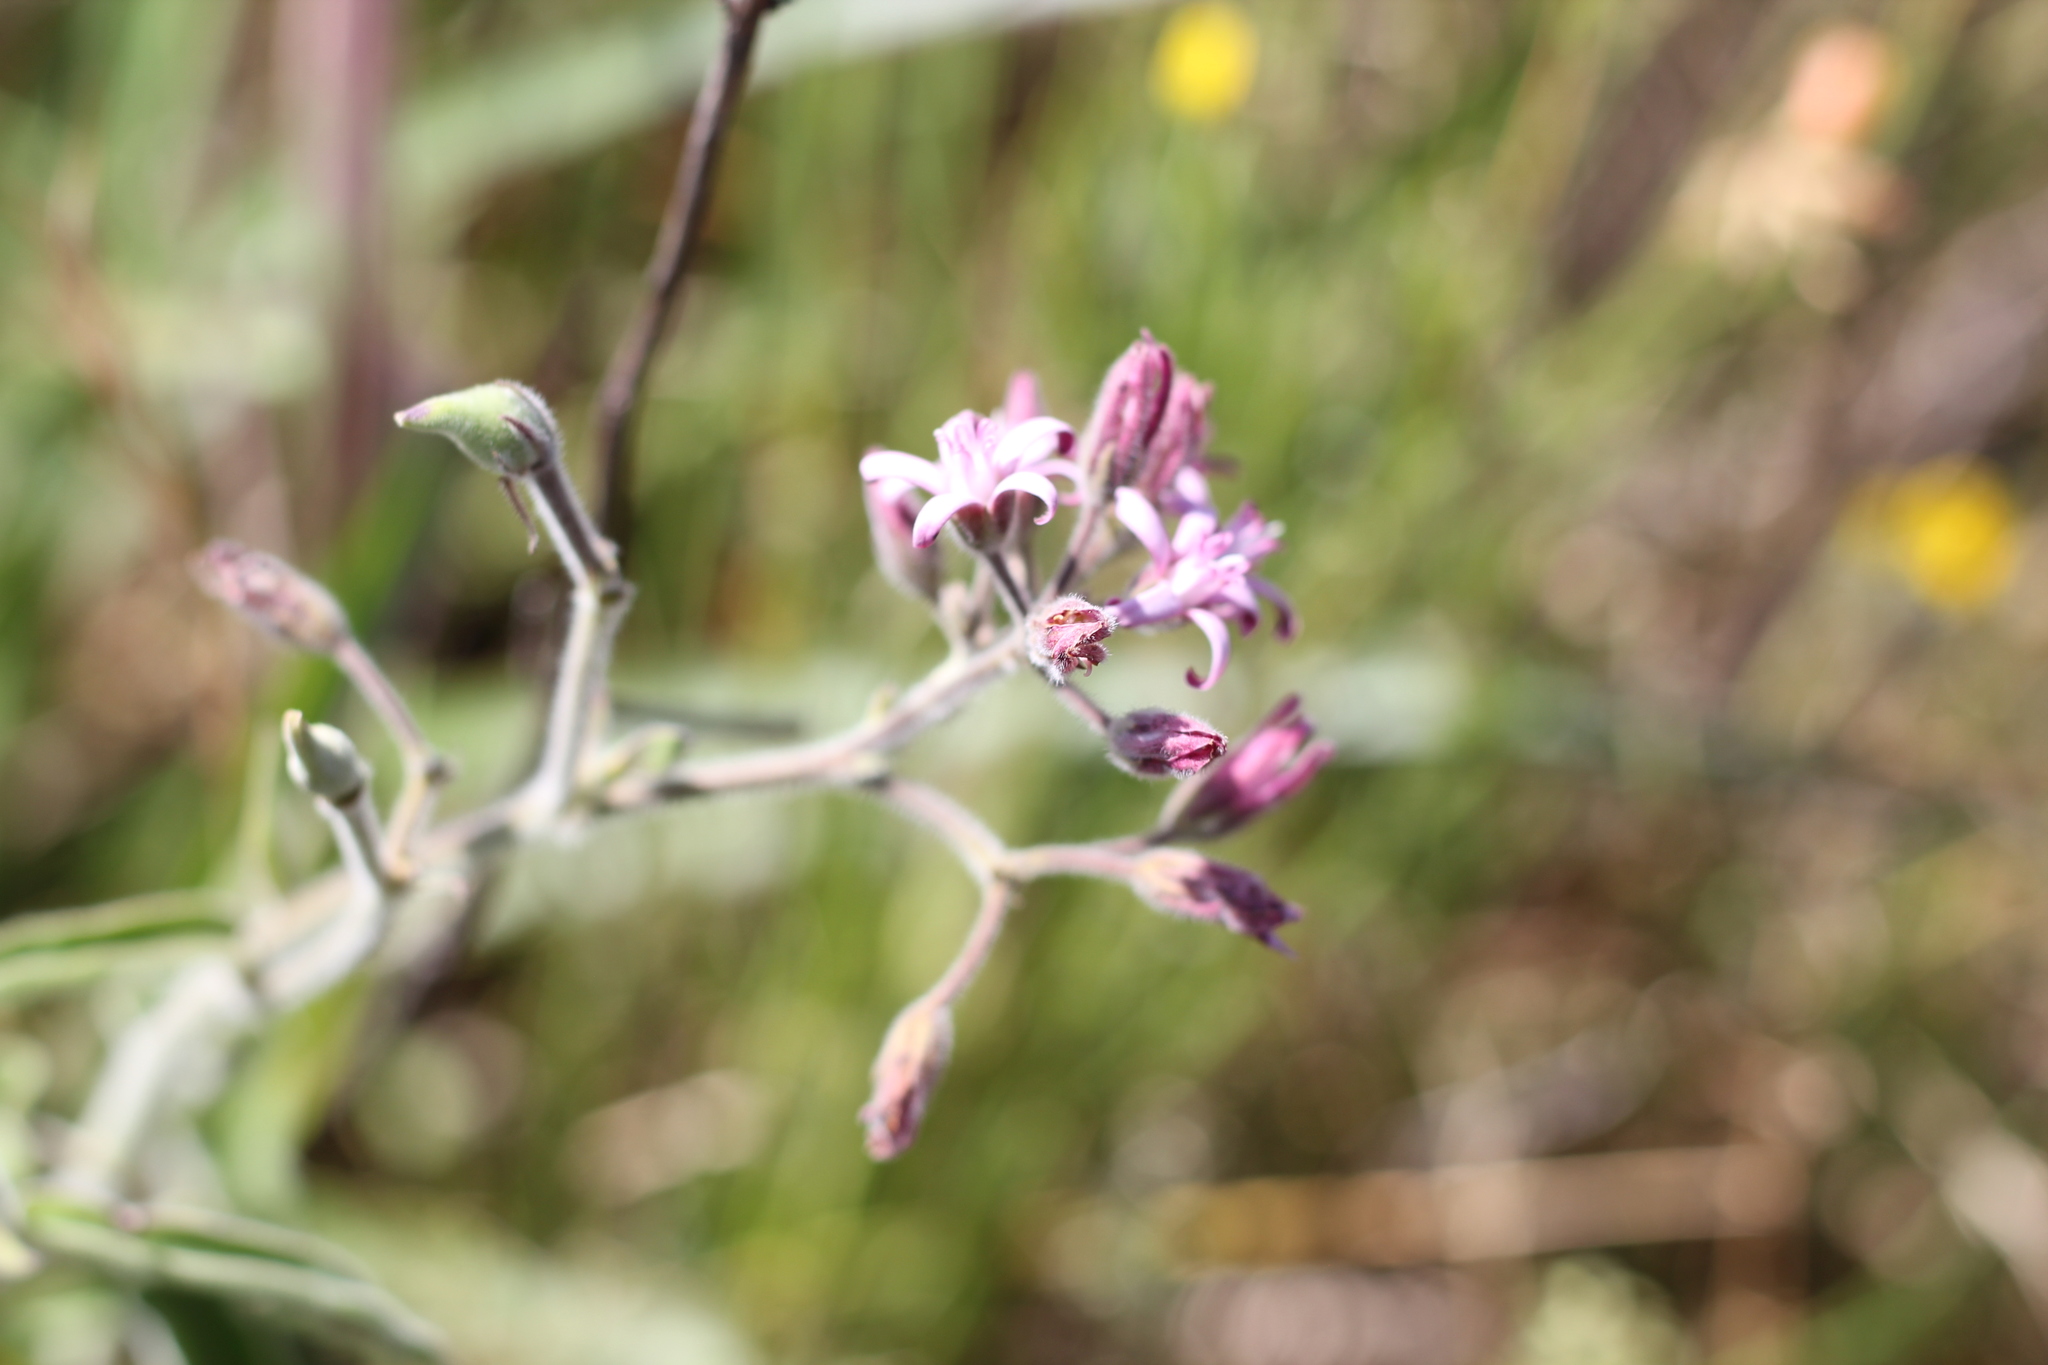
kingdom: Plantae
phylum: Tracheophyta
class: Magnoliopsida
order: Gentianales
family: Apocynaceae
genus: Oxypetalum
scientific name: Oxypetalum solanoides
